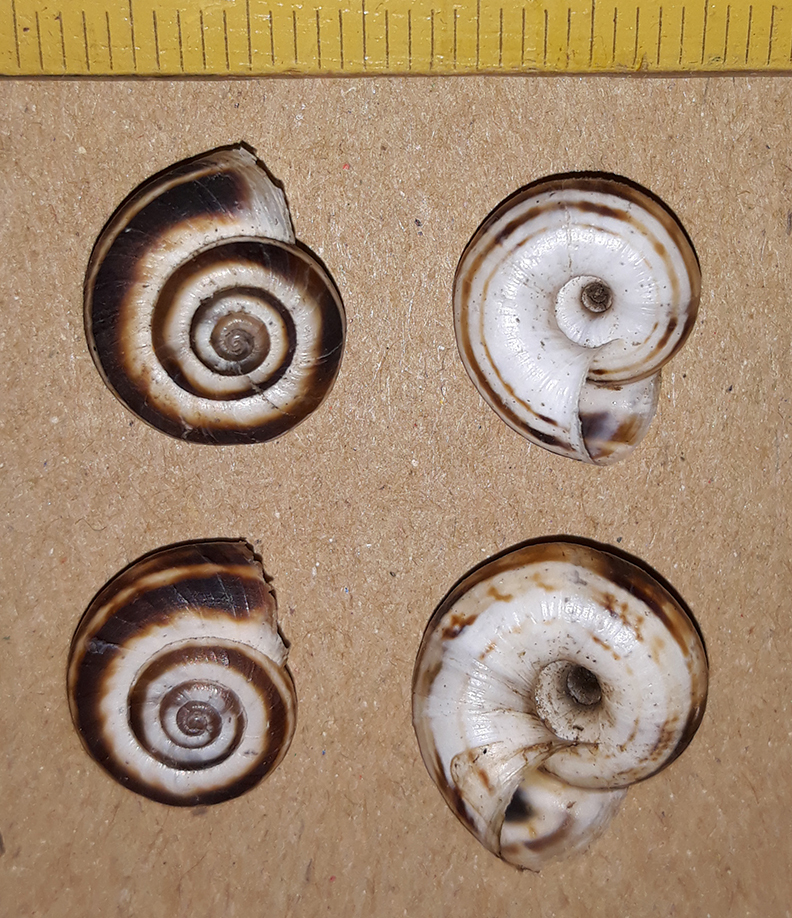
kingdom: Animalia
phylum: Mollusca
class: Gastropoda
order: Stylommatophora
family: Geomitridae
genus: Xerolenta
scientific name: Xerolenta obvia
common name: White heath snail
